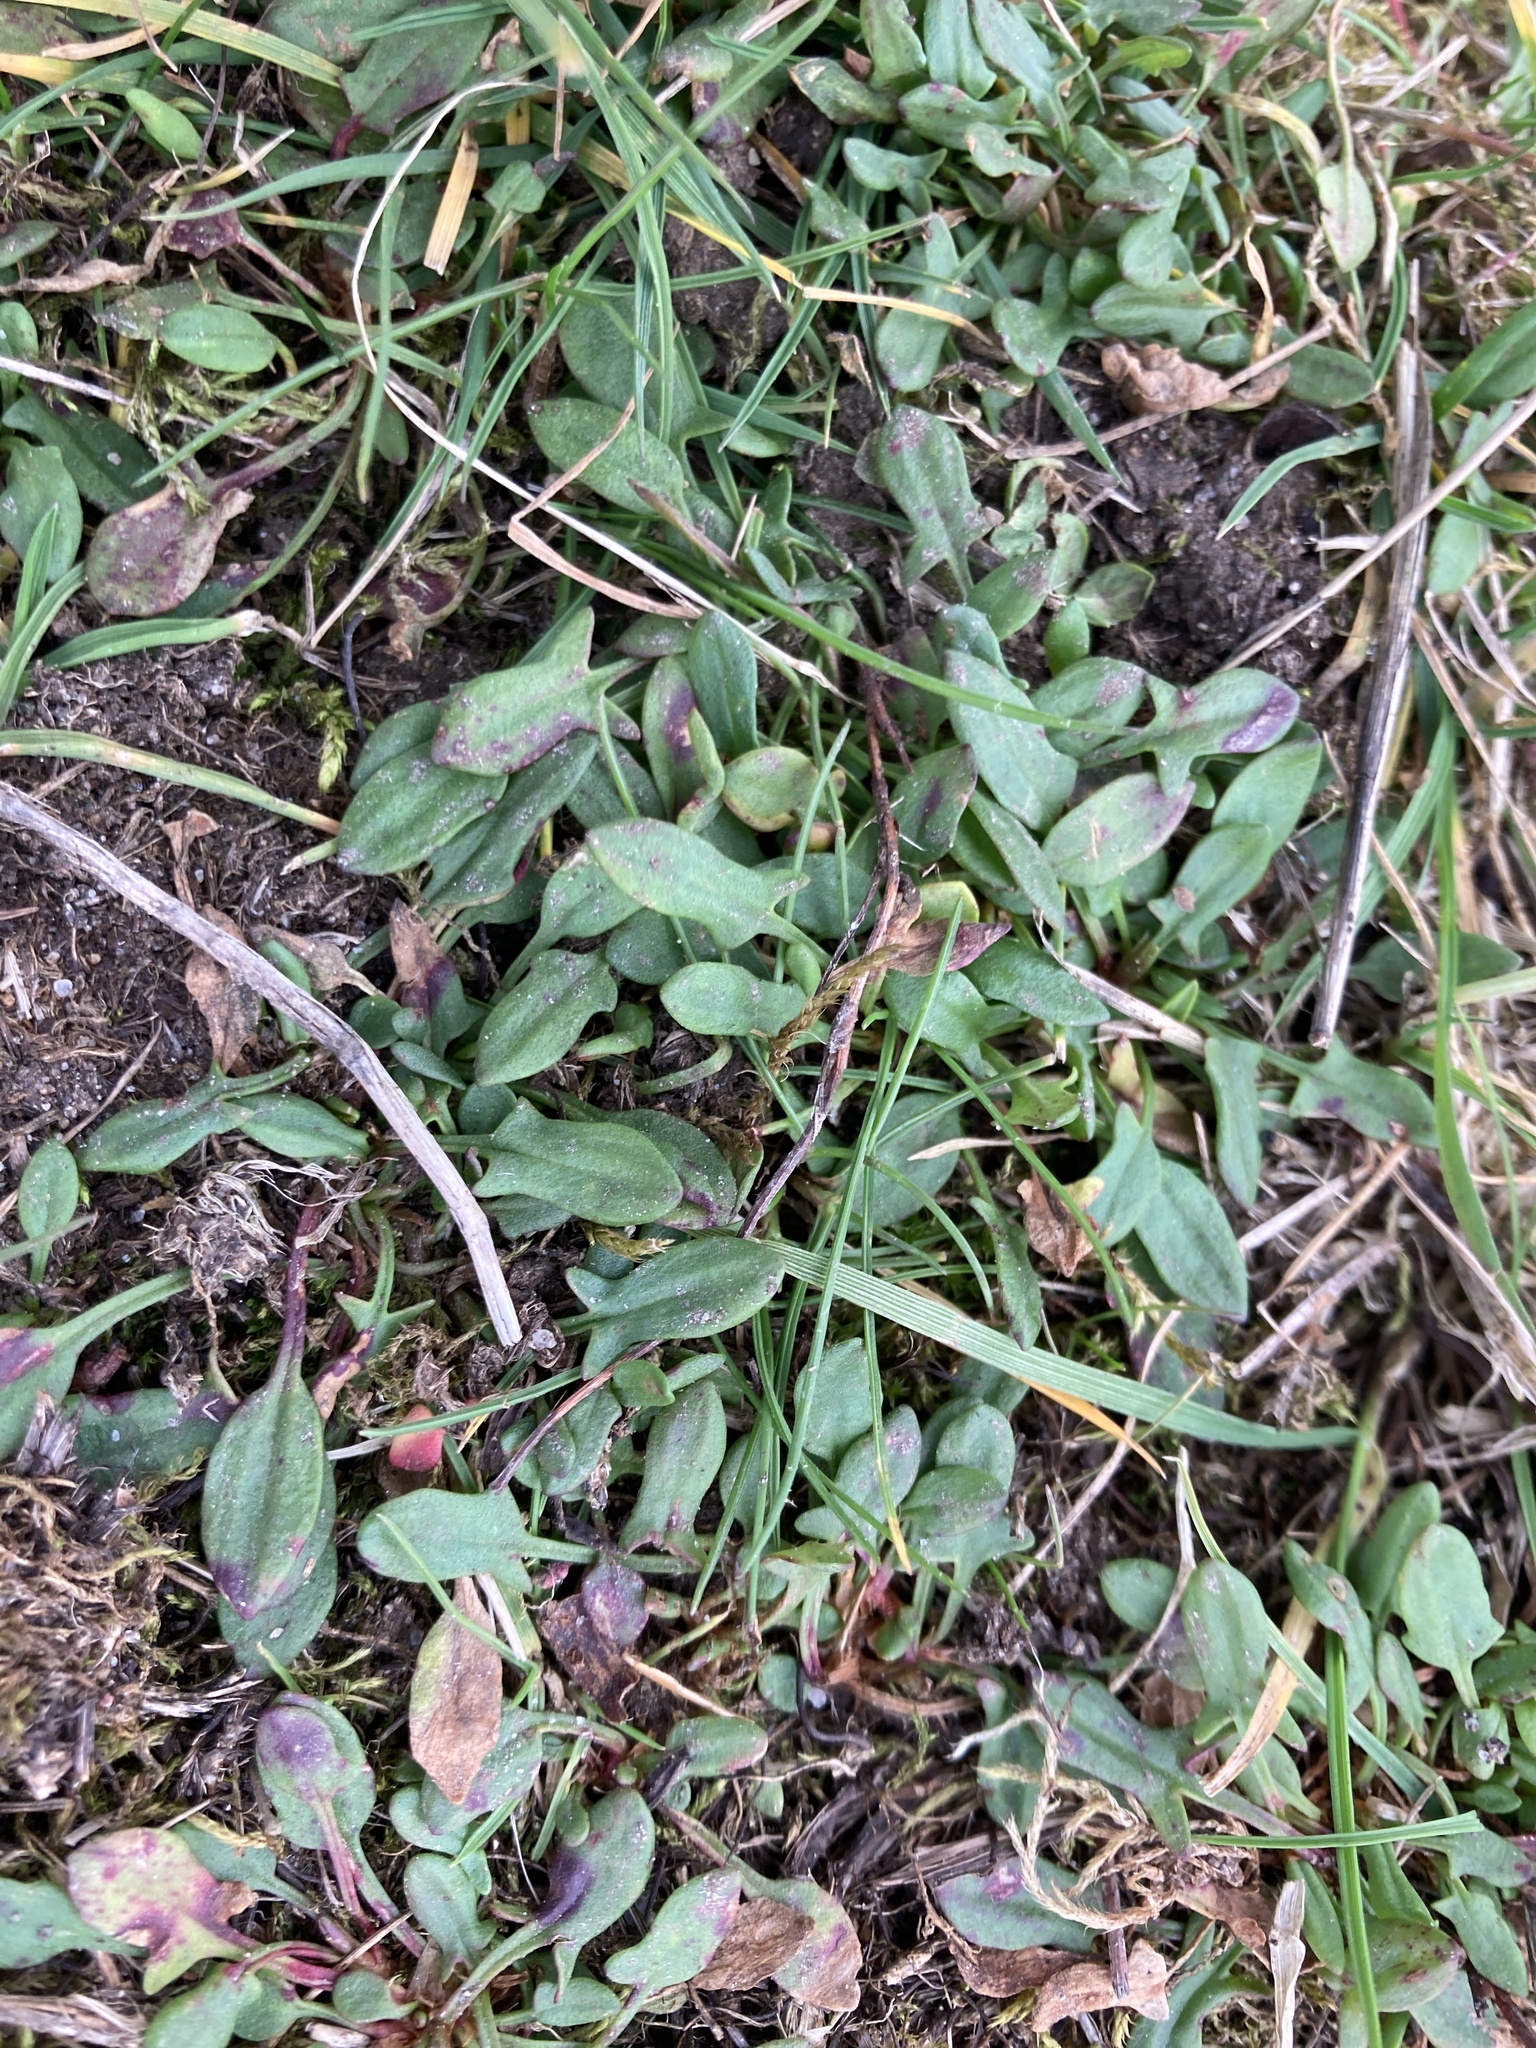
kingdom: Plantae
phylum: Tracheophyta
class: Magnoliopsida
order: Caryophyllales
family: Polygonaceae
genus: Rumex
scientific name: Rumex acetosella
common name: Common sheep sorrel
